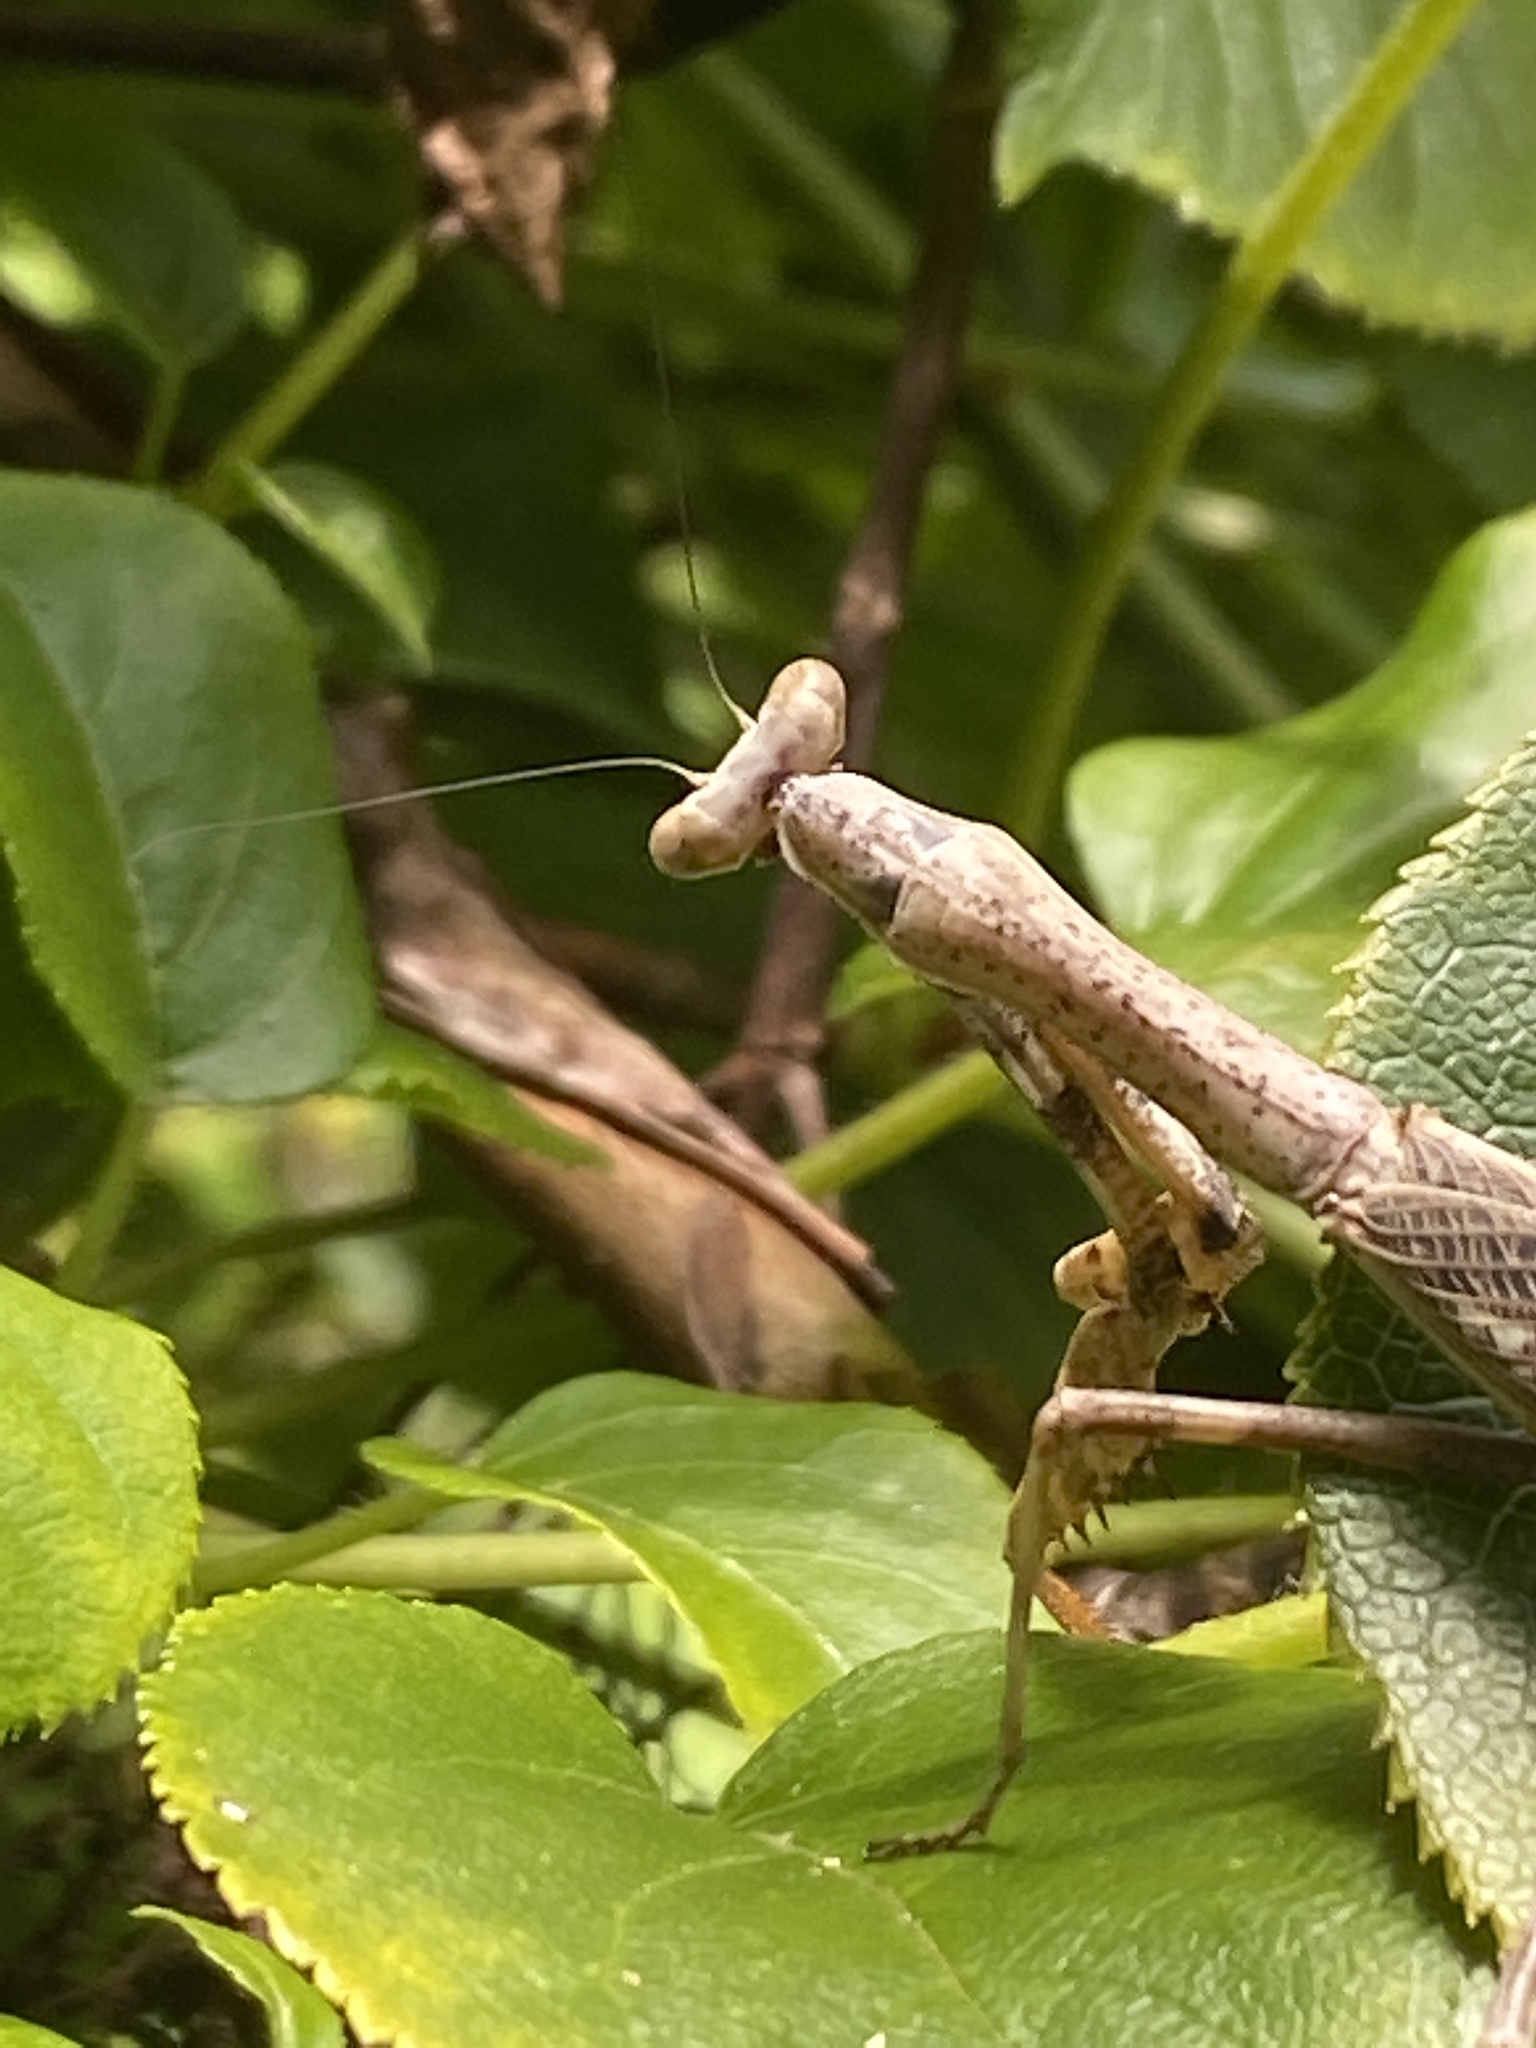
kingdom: Animalia
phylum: Arthropoda
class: Insecta
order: Mantodea
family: Mantidae
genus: Stagmomantis
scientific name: Stagmomantis carolina
